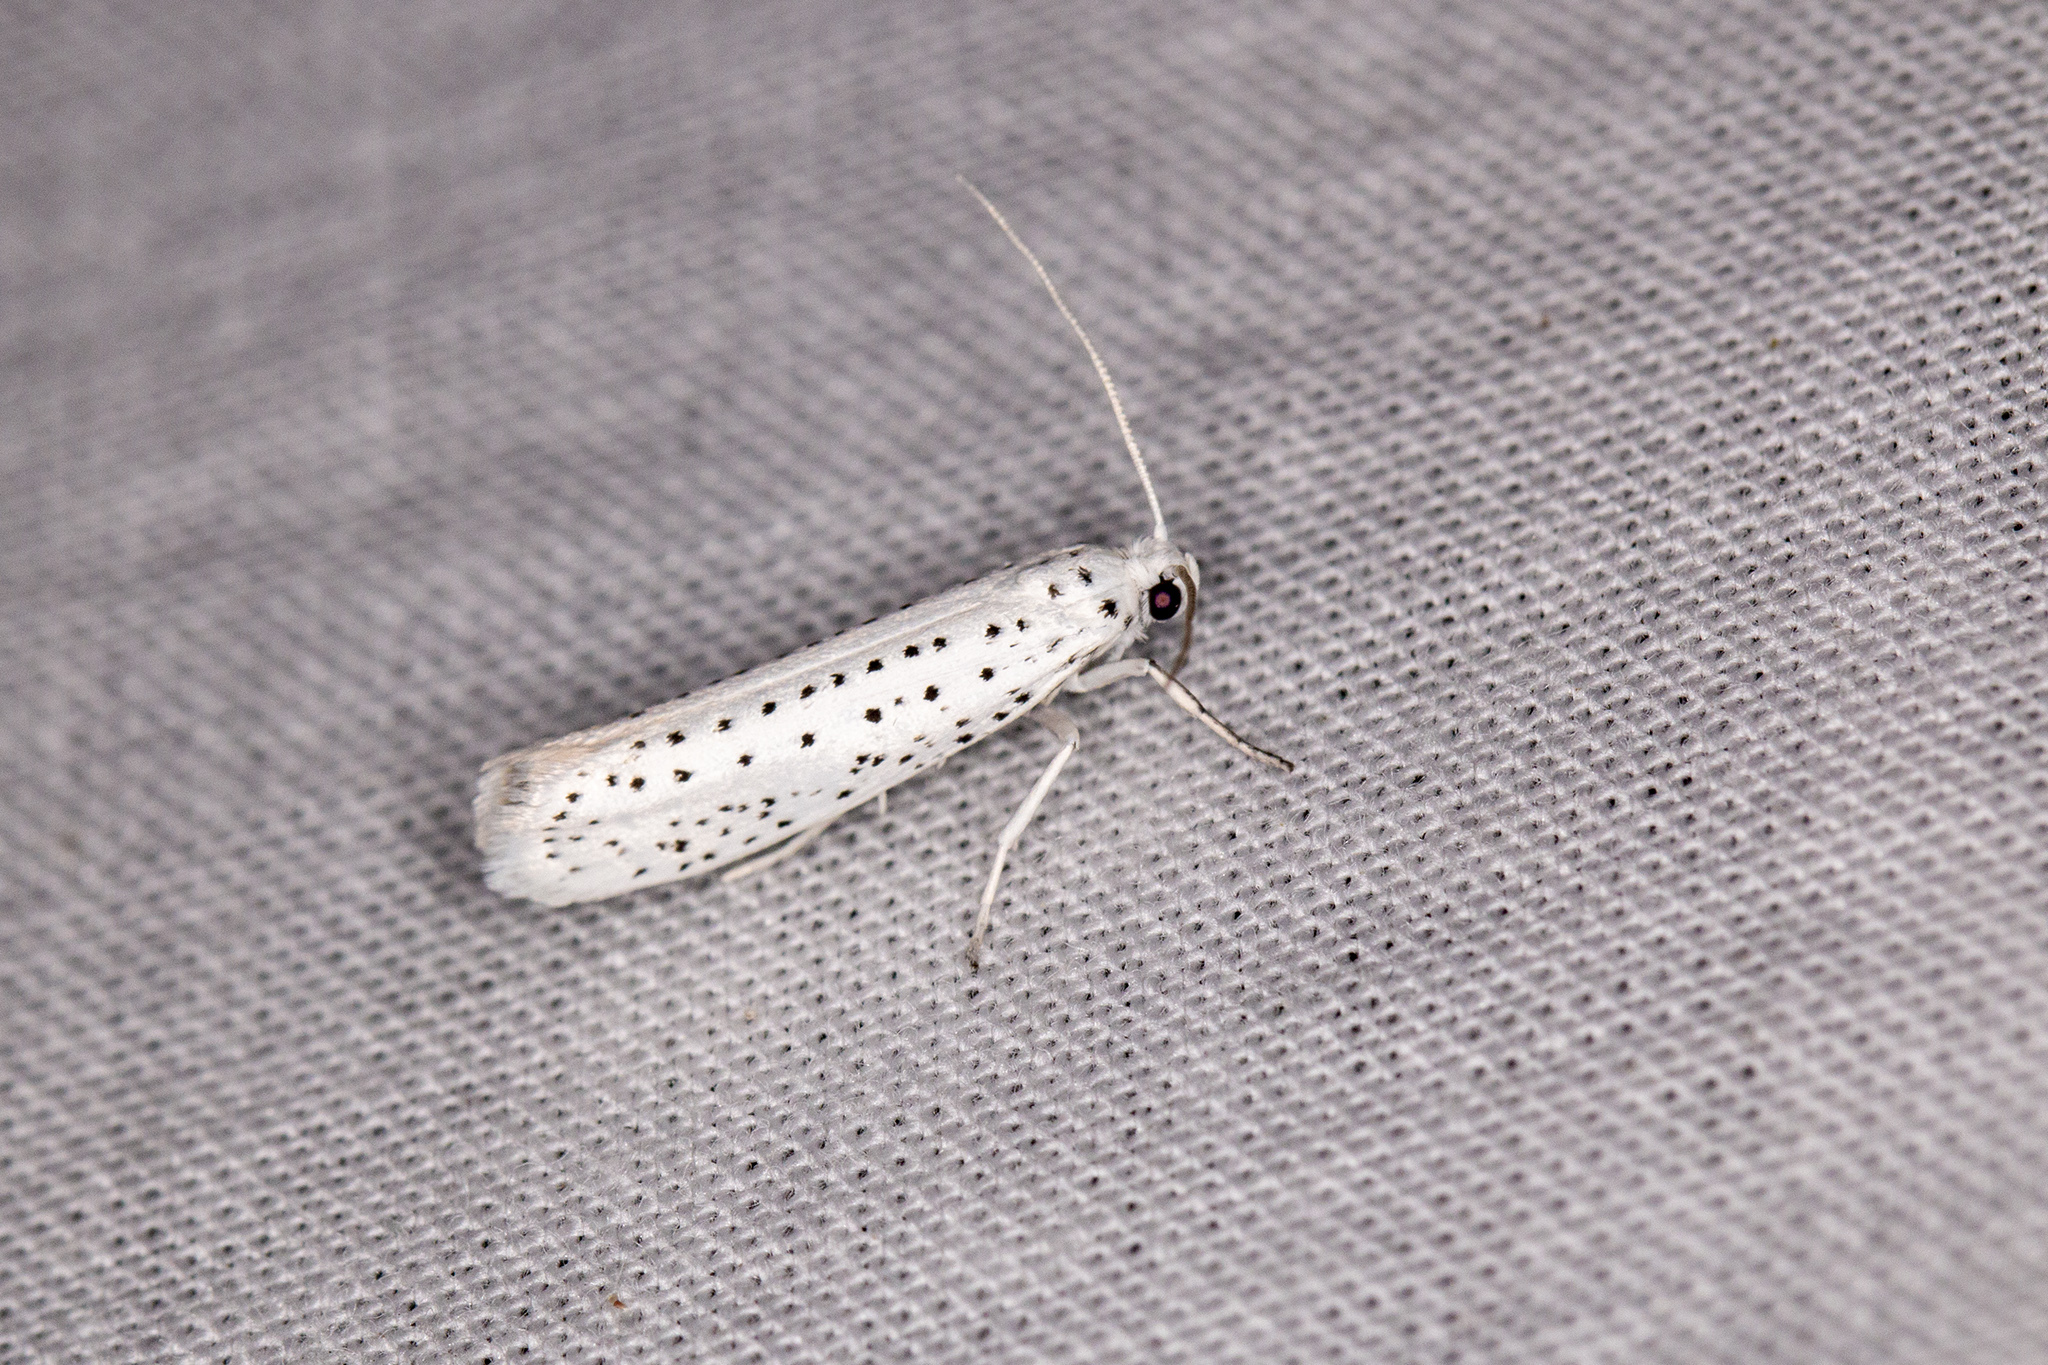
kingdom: Animalia
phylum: Arthropoda
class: Insecta
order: Lepidoptera
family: Yponomeutidae
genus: Yponomeuta
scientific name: Yponomeuta evonymella
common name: Bird-cherry ermine
